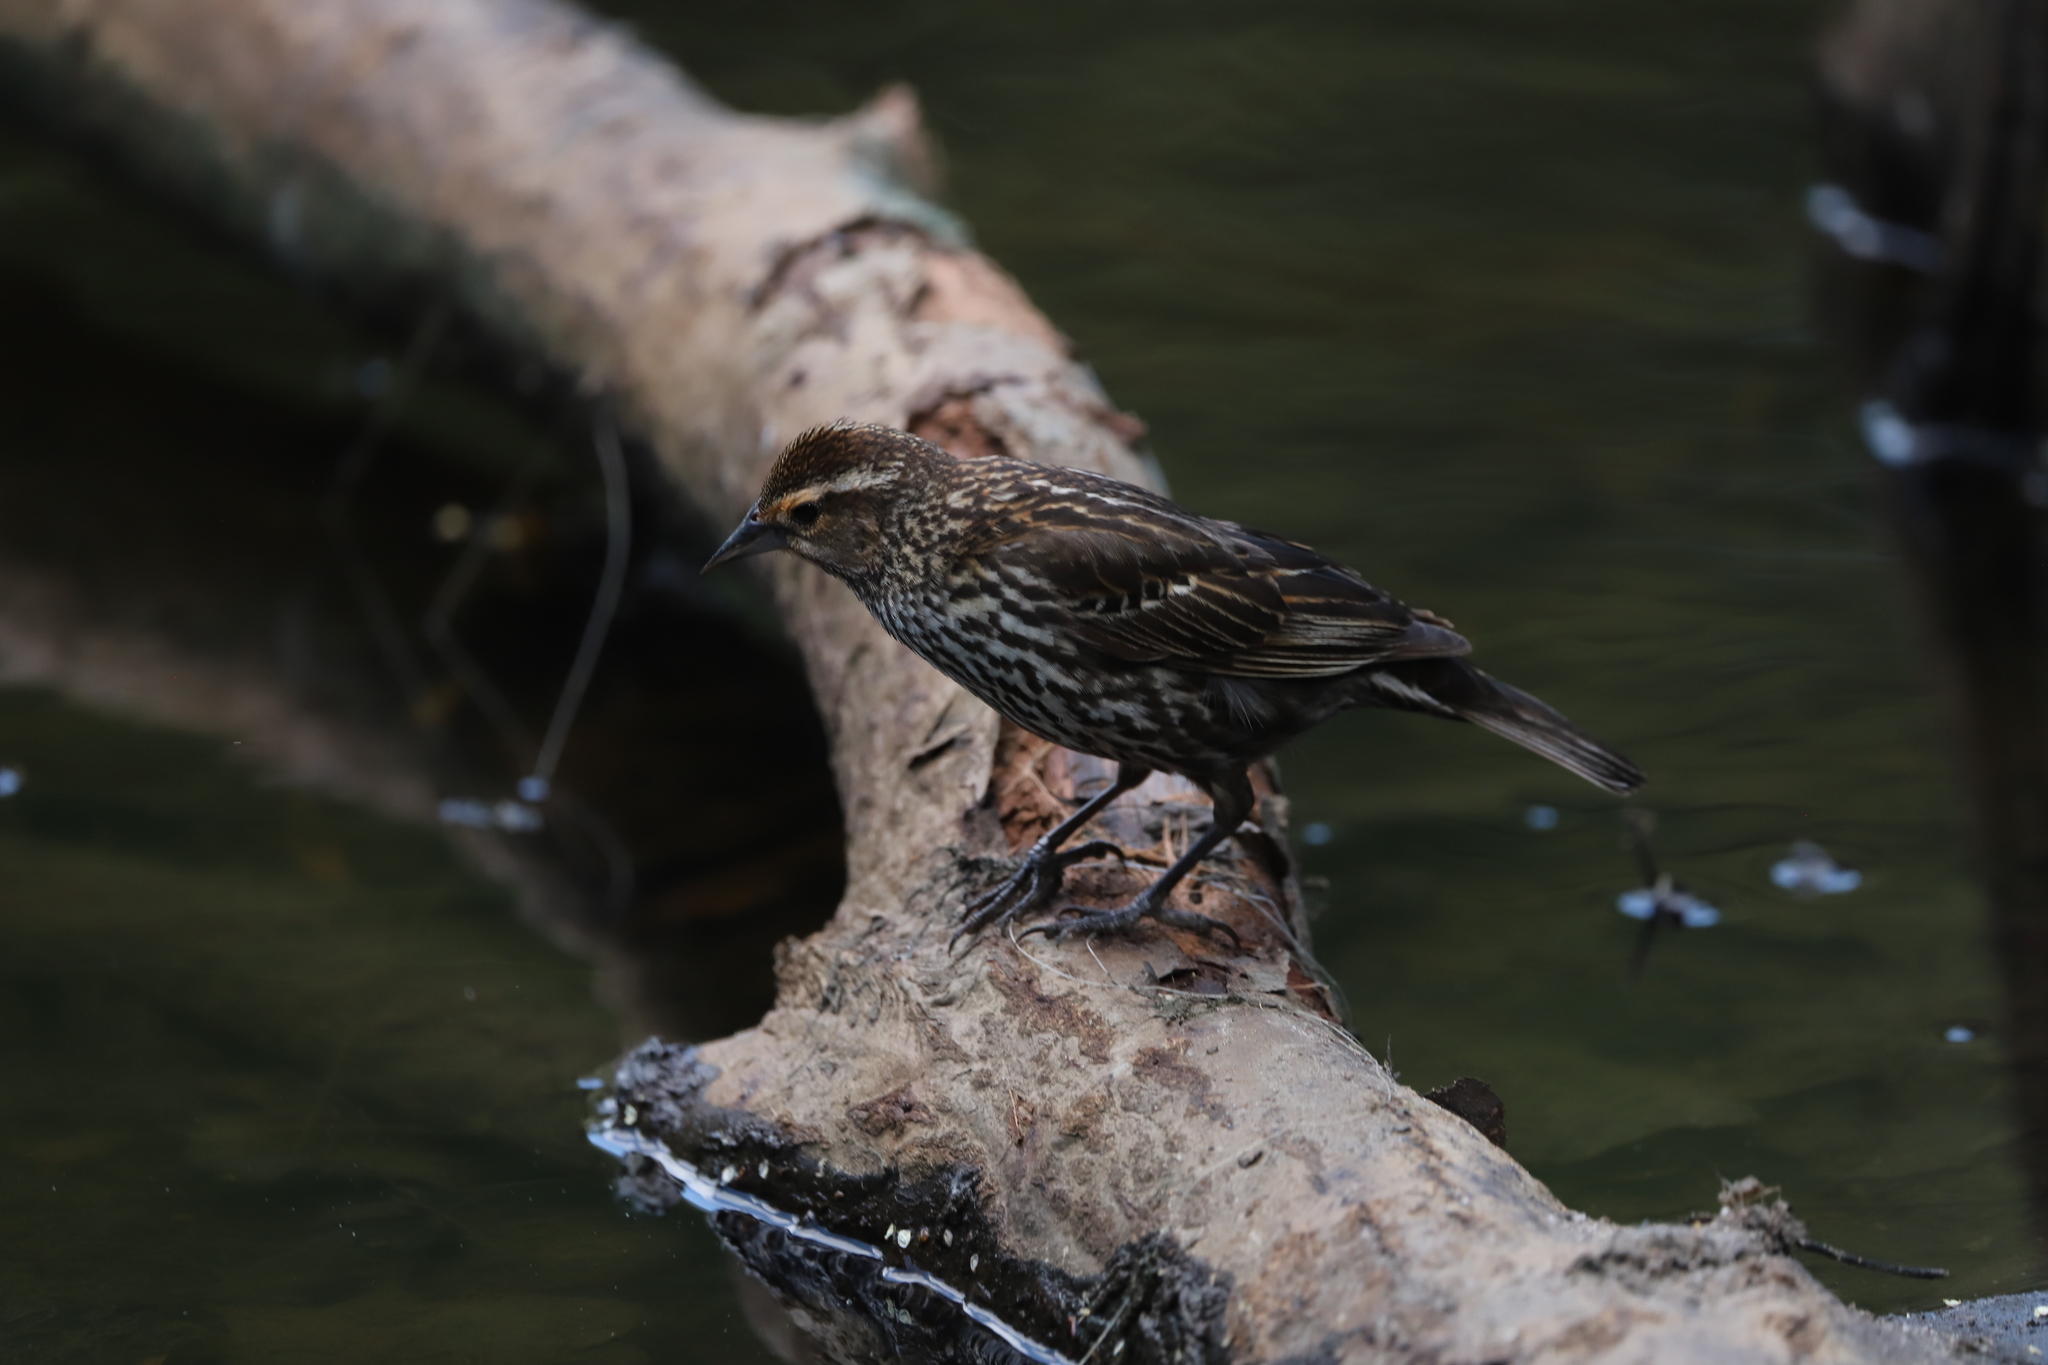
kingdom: Animalia
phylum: Chordata
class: Aves
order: Passeriformes
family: Icteridae
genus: Agelaius
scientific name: Agelaius phoeniceus
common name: Red-winged blackbird
